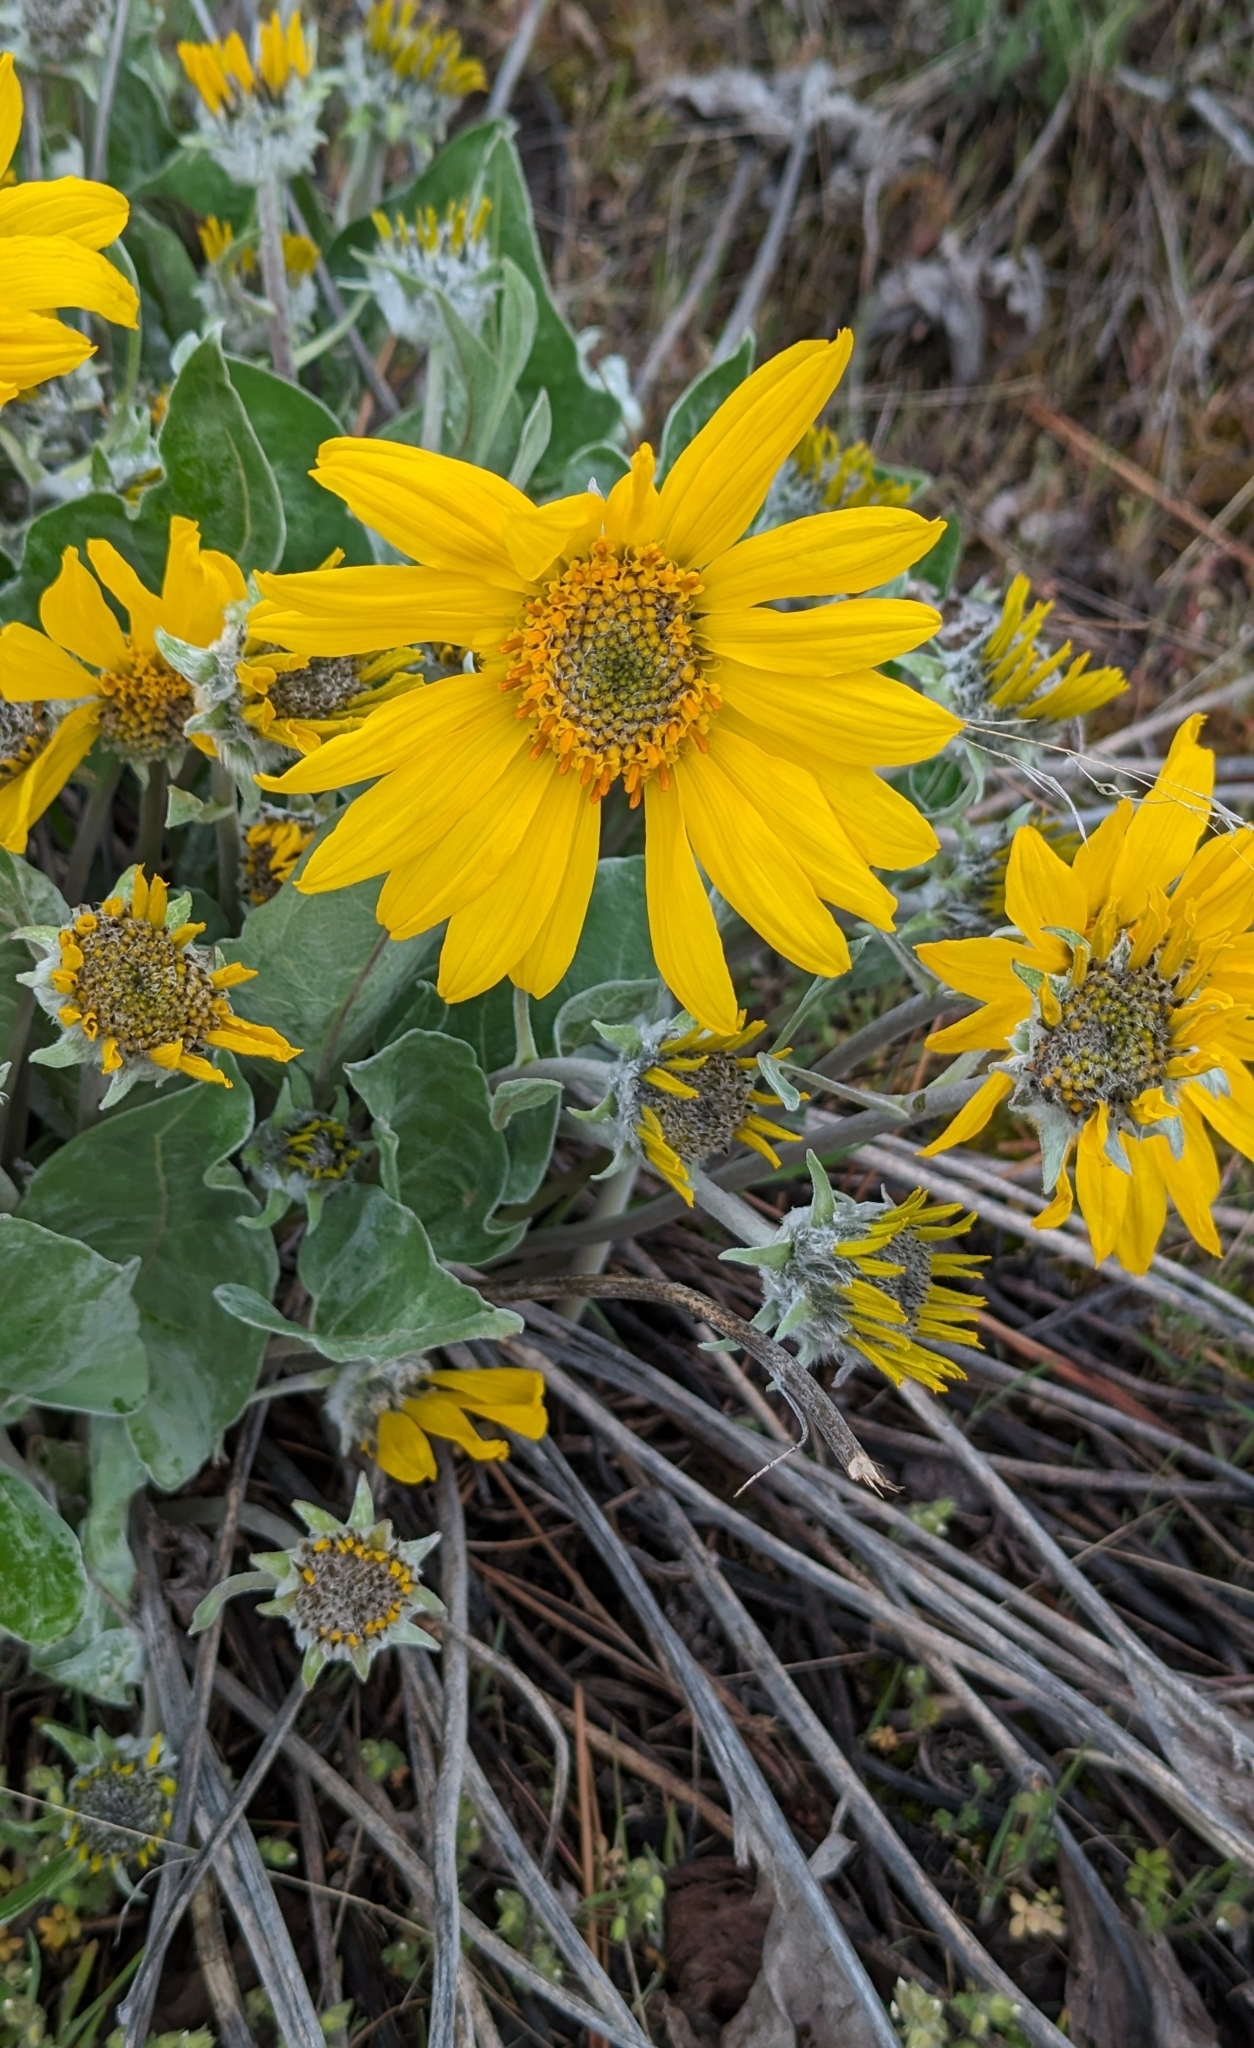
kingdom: Plantae
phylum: Tracheophyta
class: Magnoliopsida
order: Asterales
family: Asteraceae
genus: Wyethia
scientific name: Wyethia sagittata
